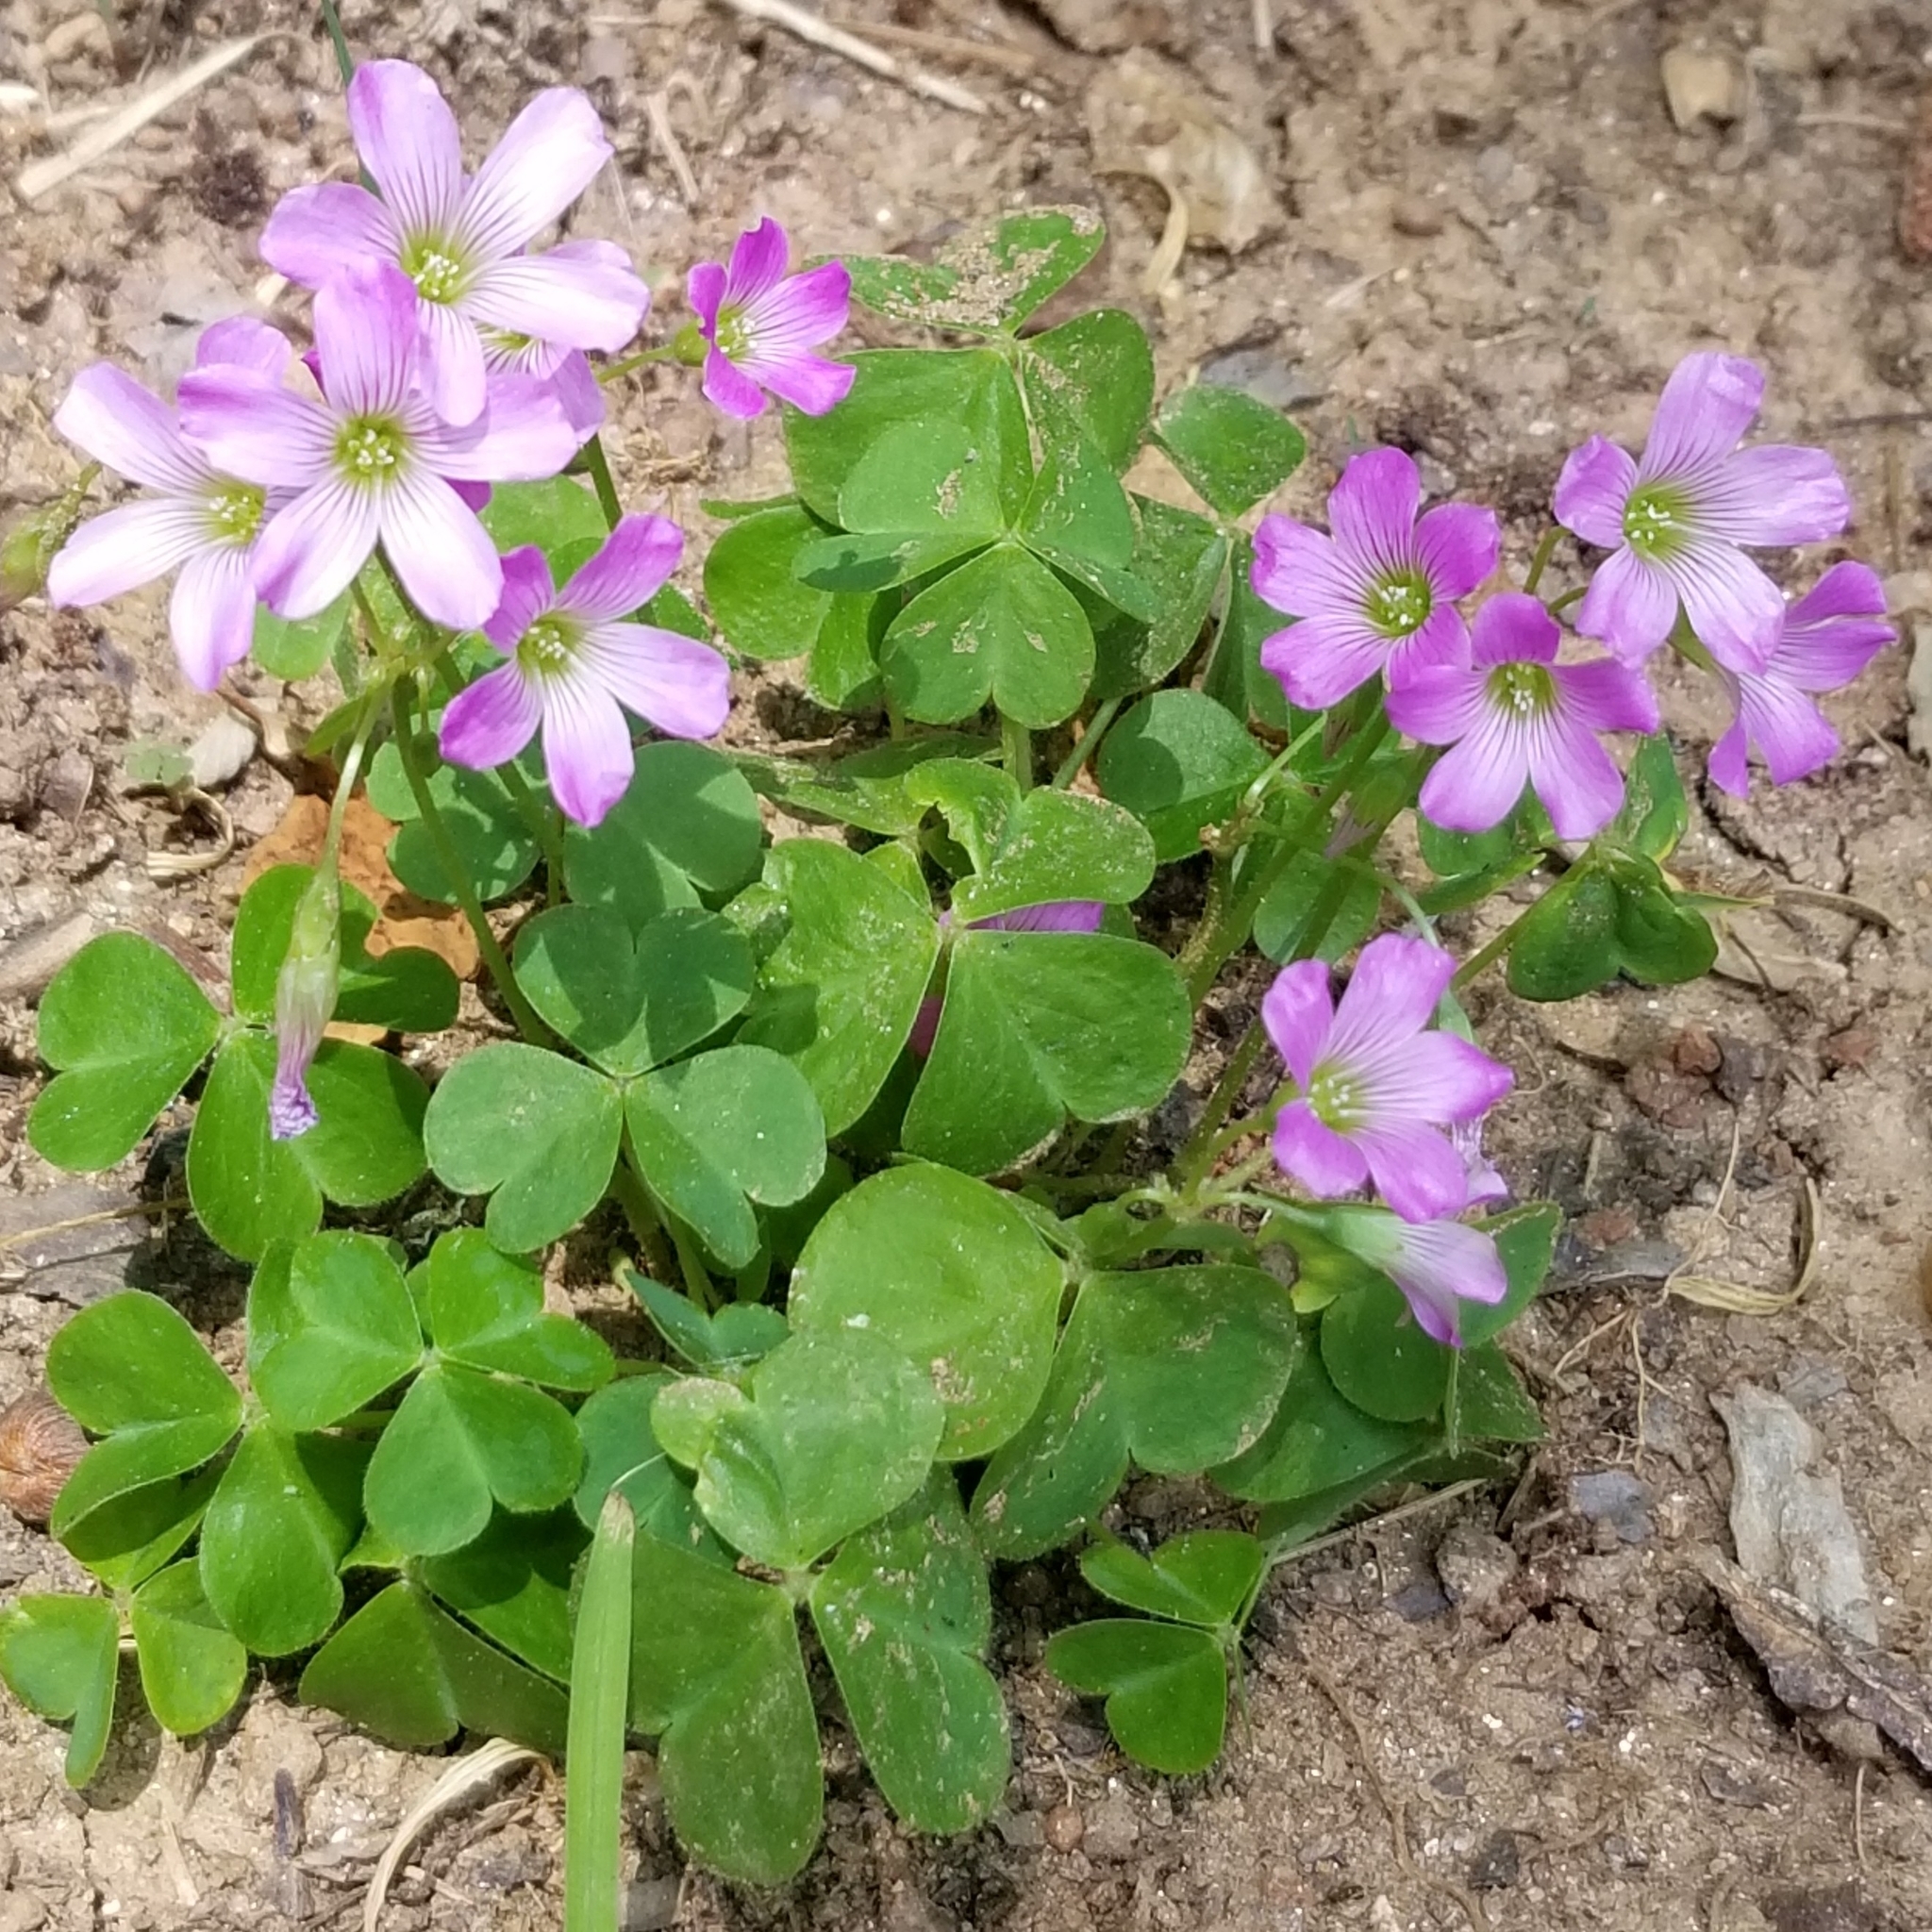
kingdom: Plantae
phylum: Tracheophyta
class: Magnoliopsida
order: Oxalidales
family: Oxalidaceae
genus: Oxalis
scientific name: Oxalis debilis
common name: Large-flowered pink-sorrel
